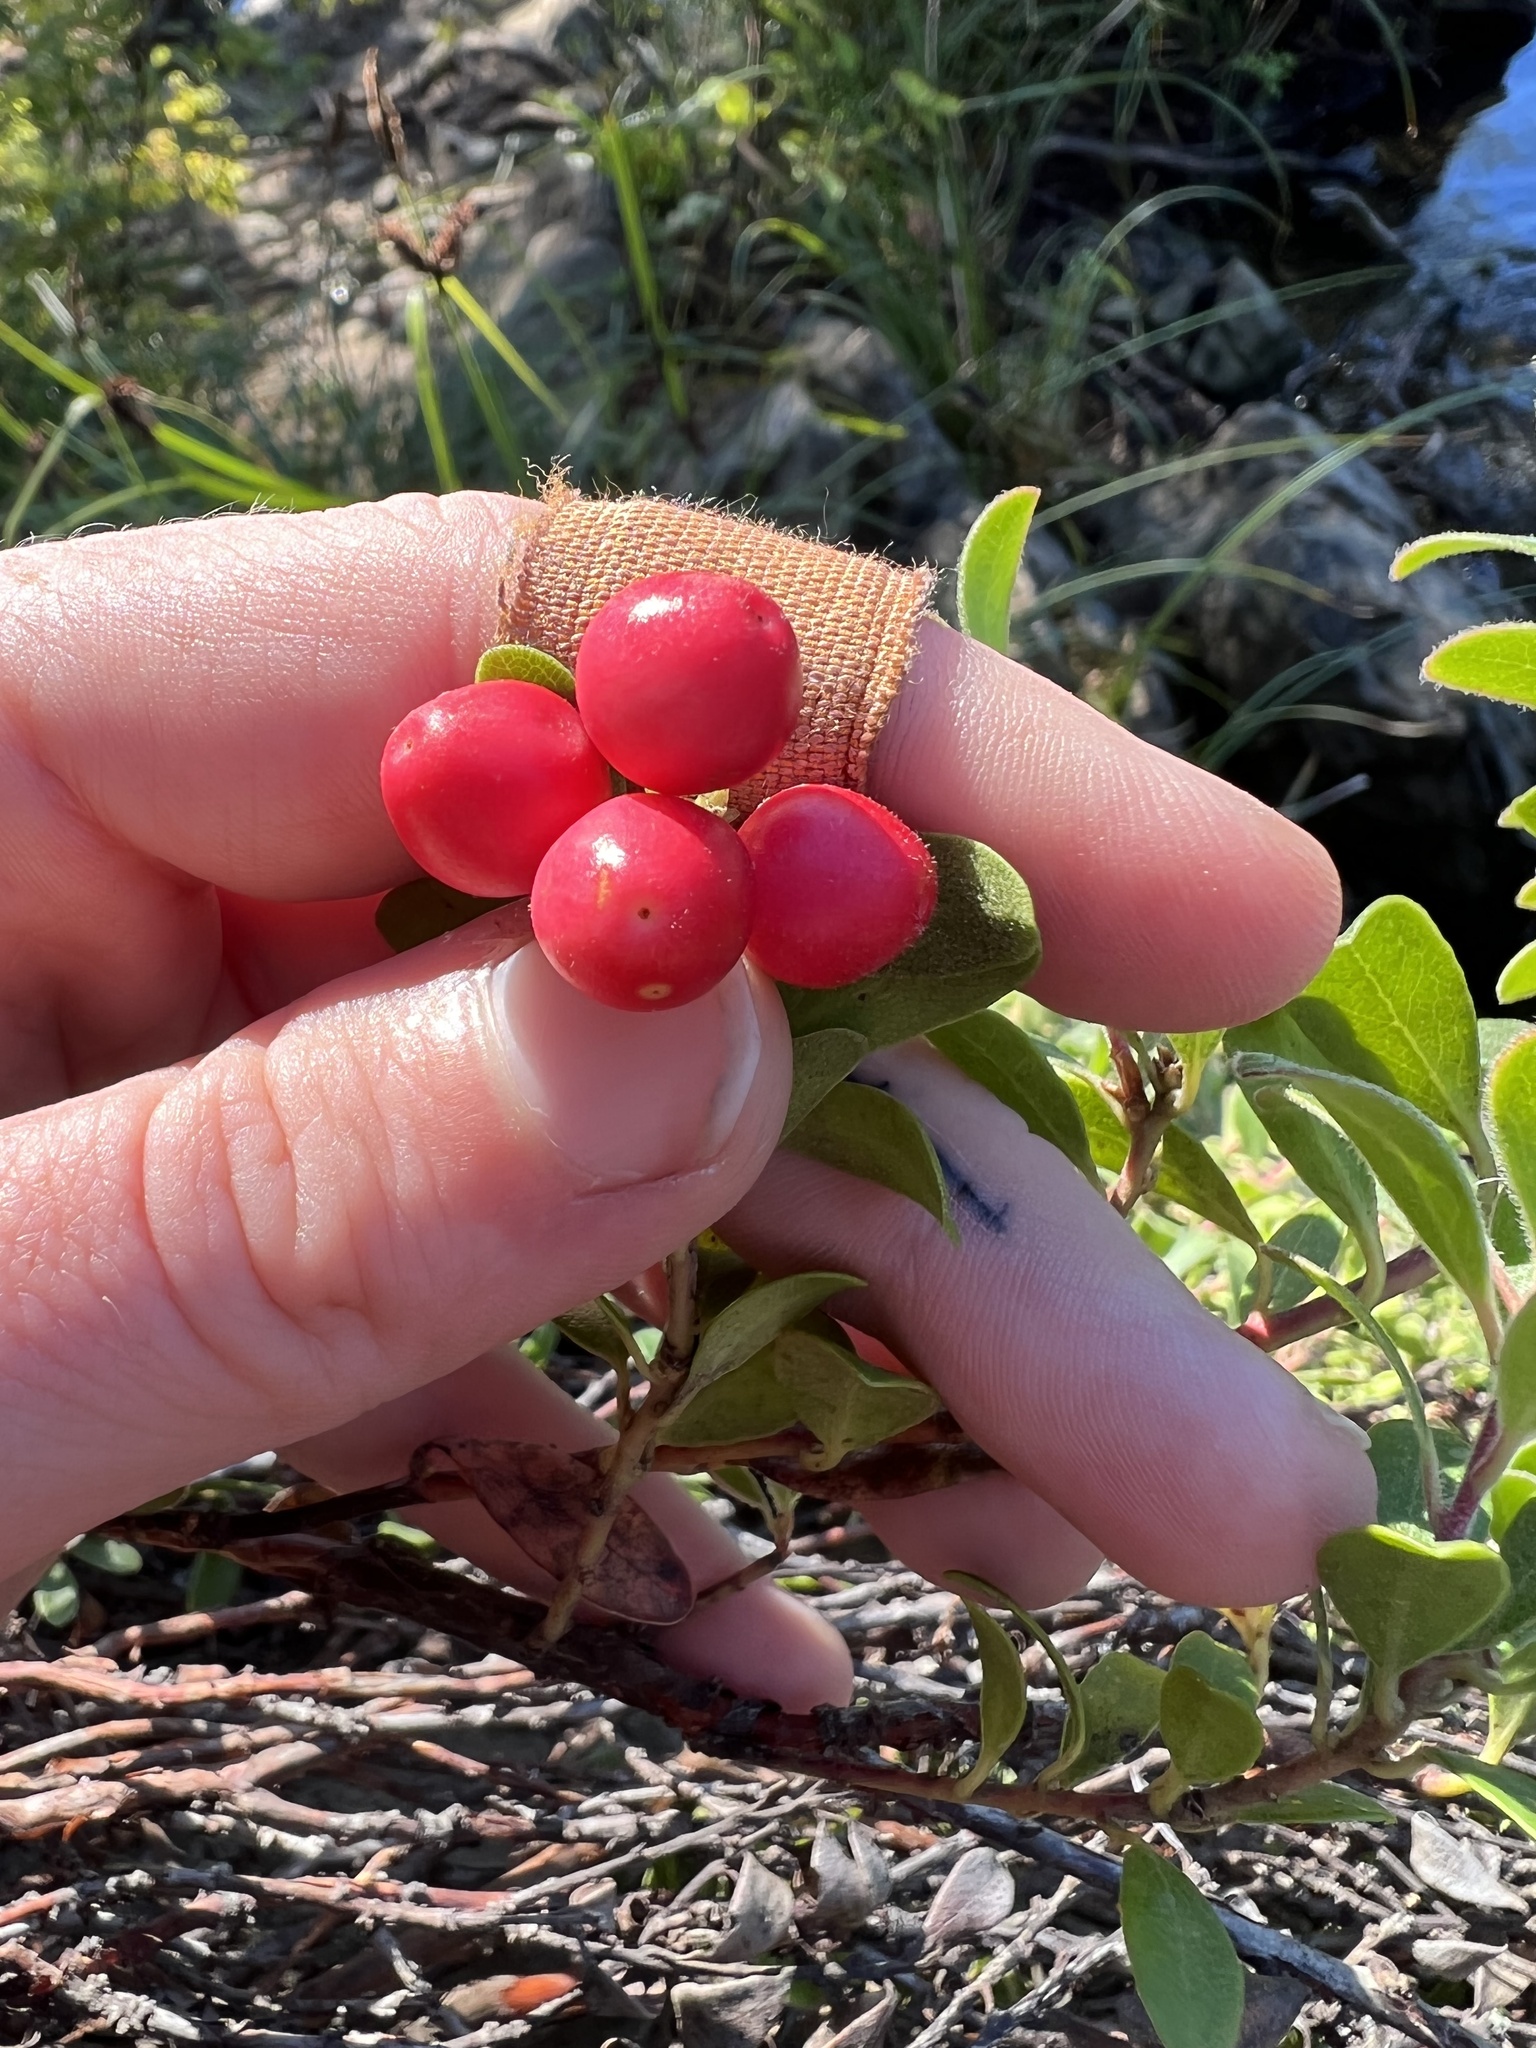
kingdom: Plantae
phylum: Tracheophyta
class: Magnoliopsida
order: Ericales
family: Ericaceae
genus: Arctostaphylos
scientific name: Arctostaphylos uva-ursi
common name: Bearberry
